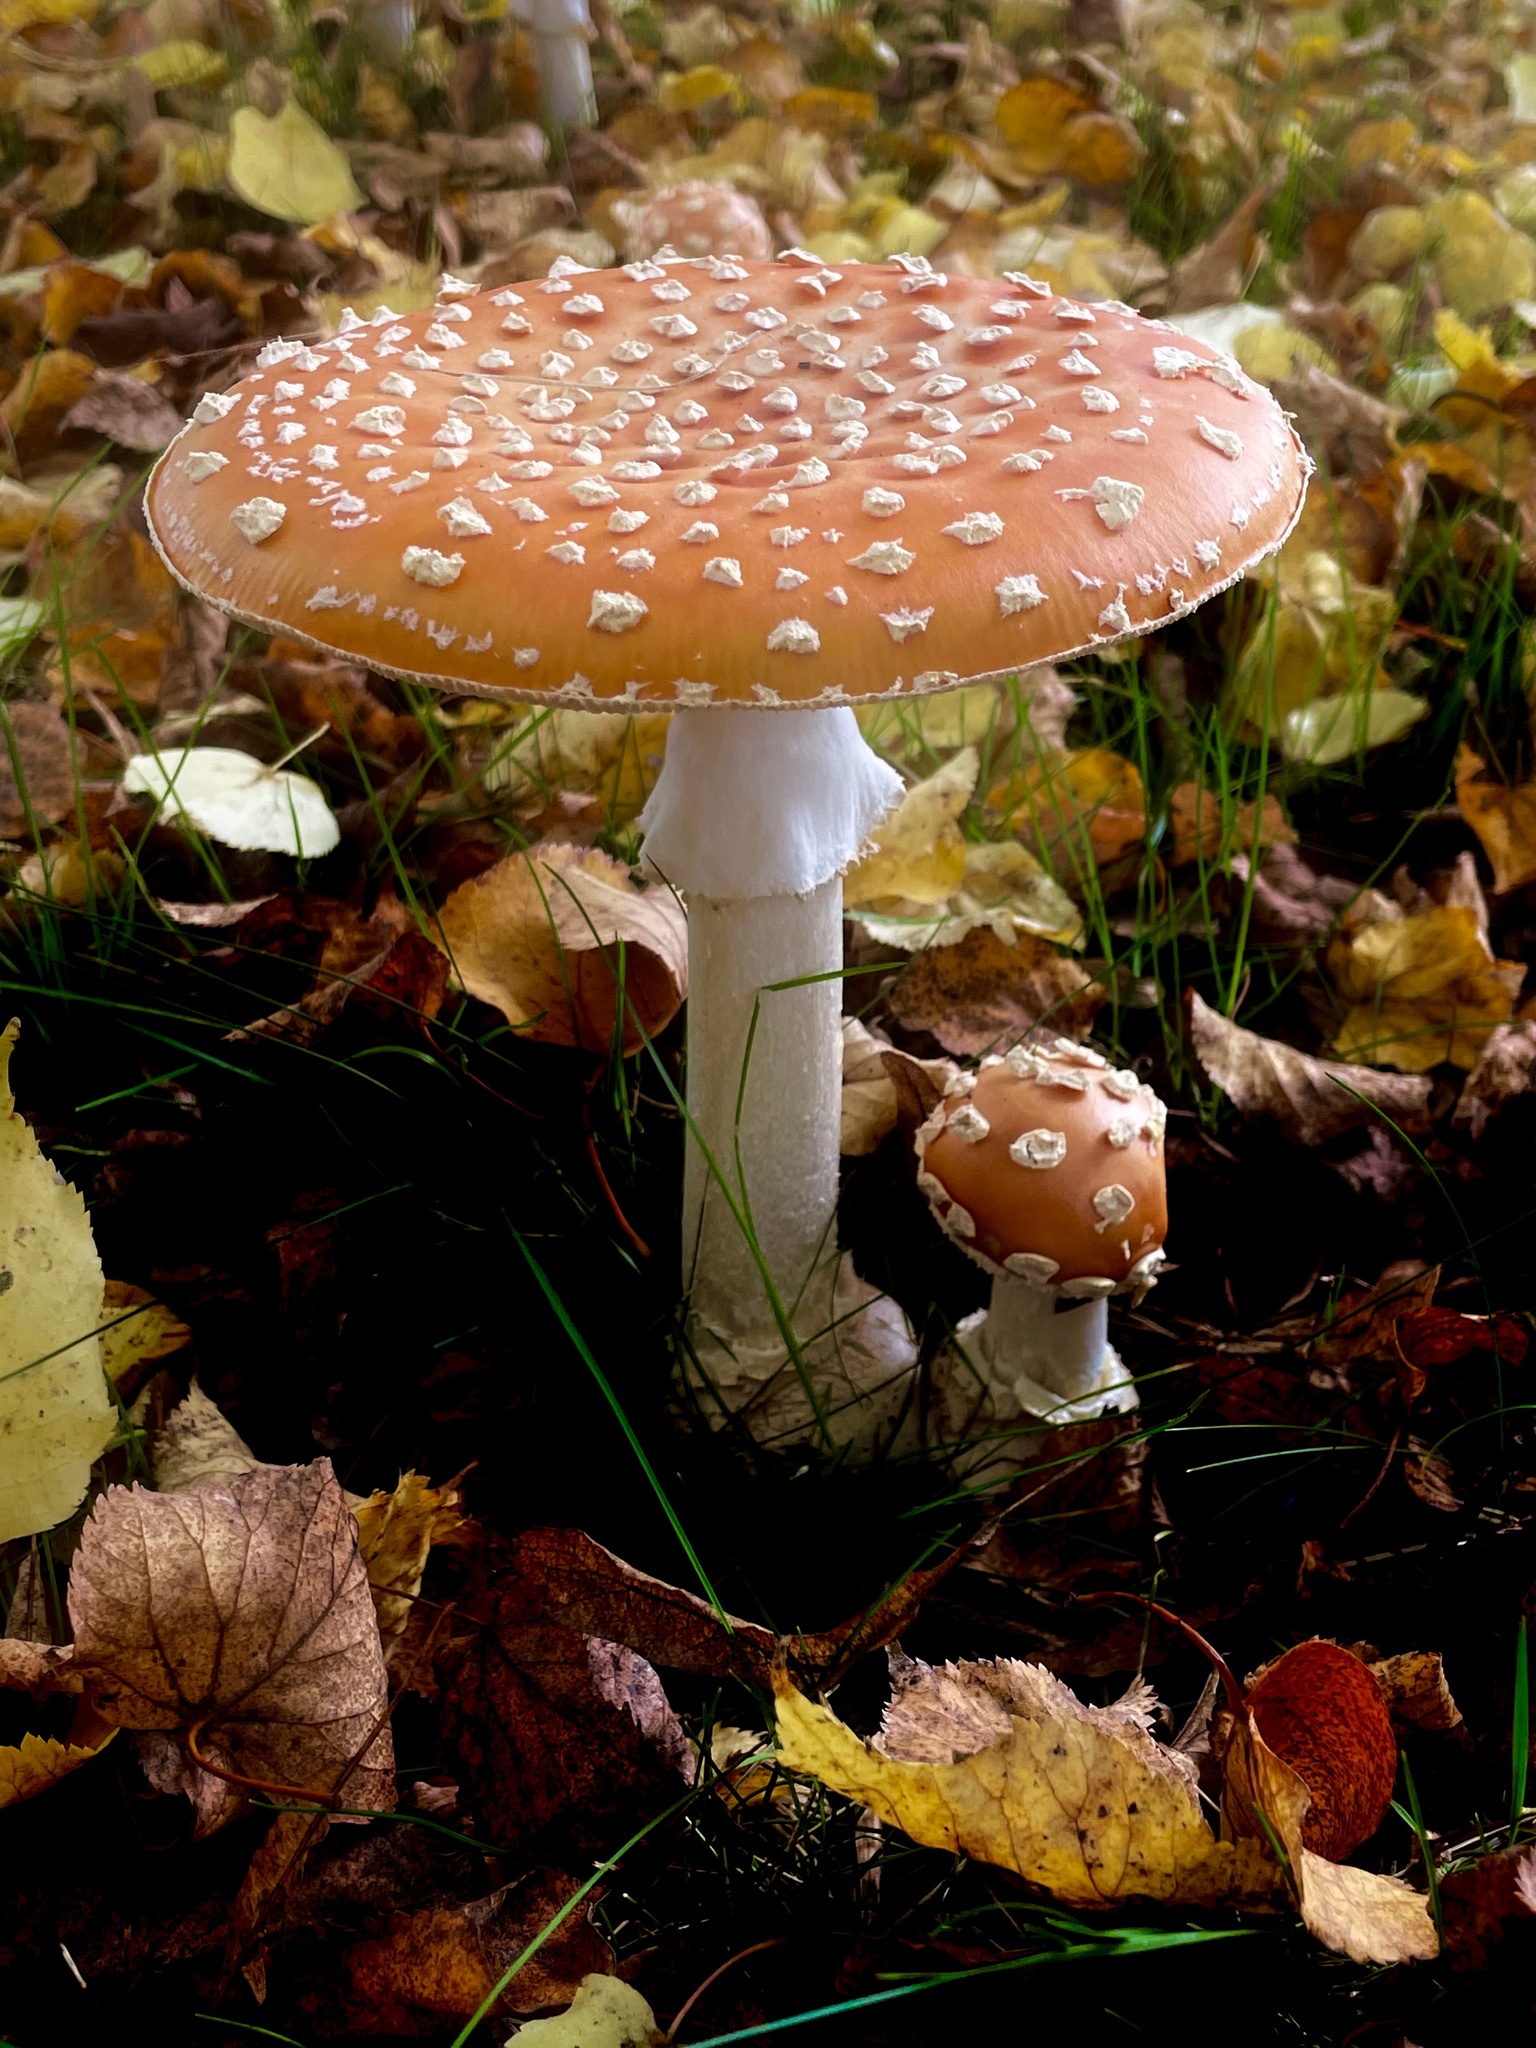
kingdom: Fungi
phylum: Basidiomycota
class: Agaricomycetes
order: Agaricales
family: Amanitaceae
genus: Amanita
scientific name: Amanita muscaria
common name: Fly agaric
